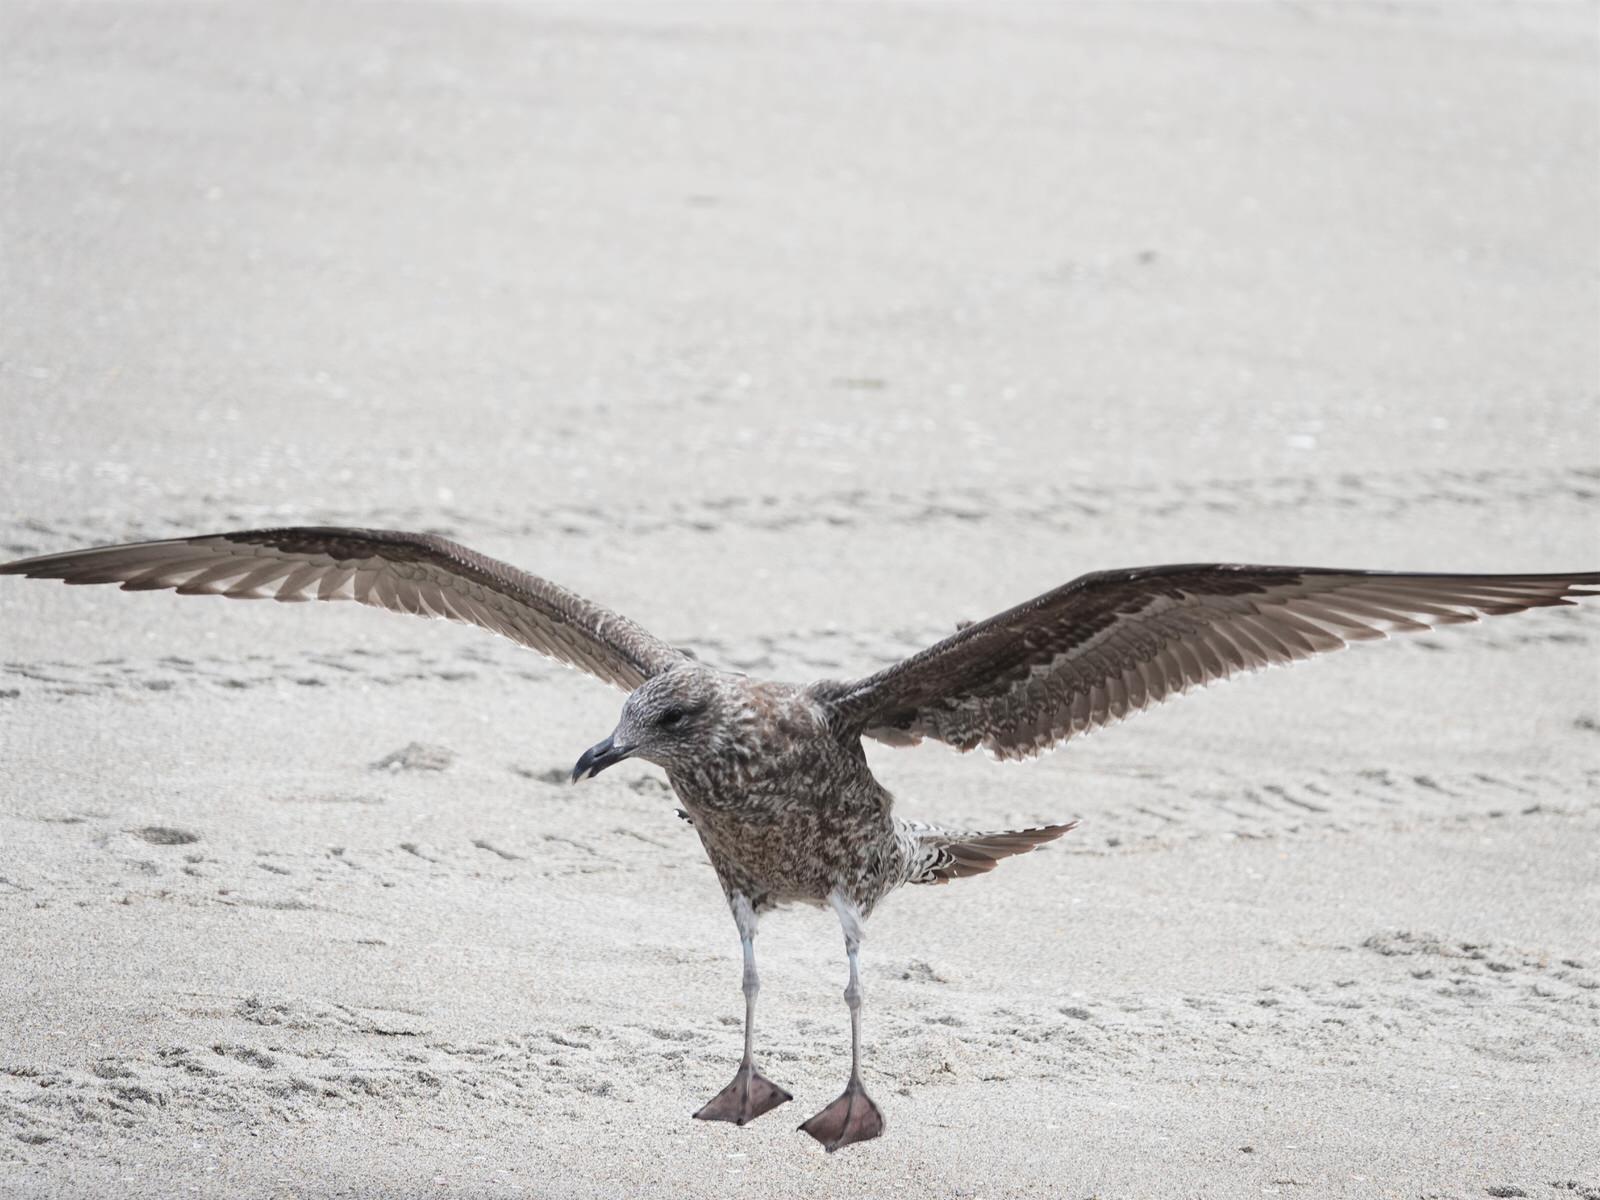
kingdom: Animalia
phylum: Chordata
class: Aves
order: Charadriiformes
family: Laridae
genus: Larus
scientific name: Larus dominicanus
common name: Kelp gull
